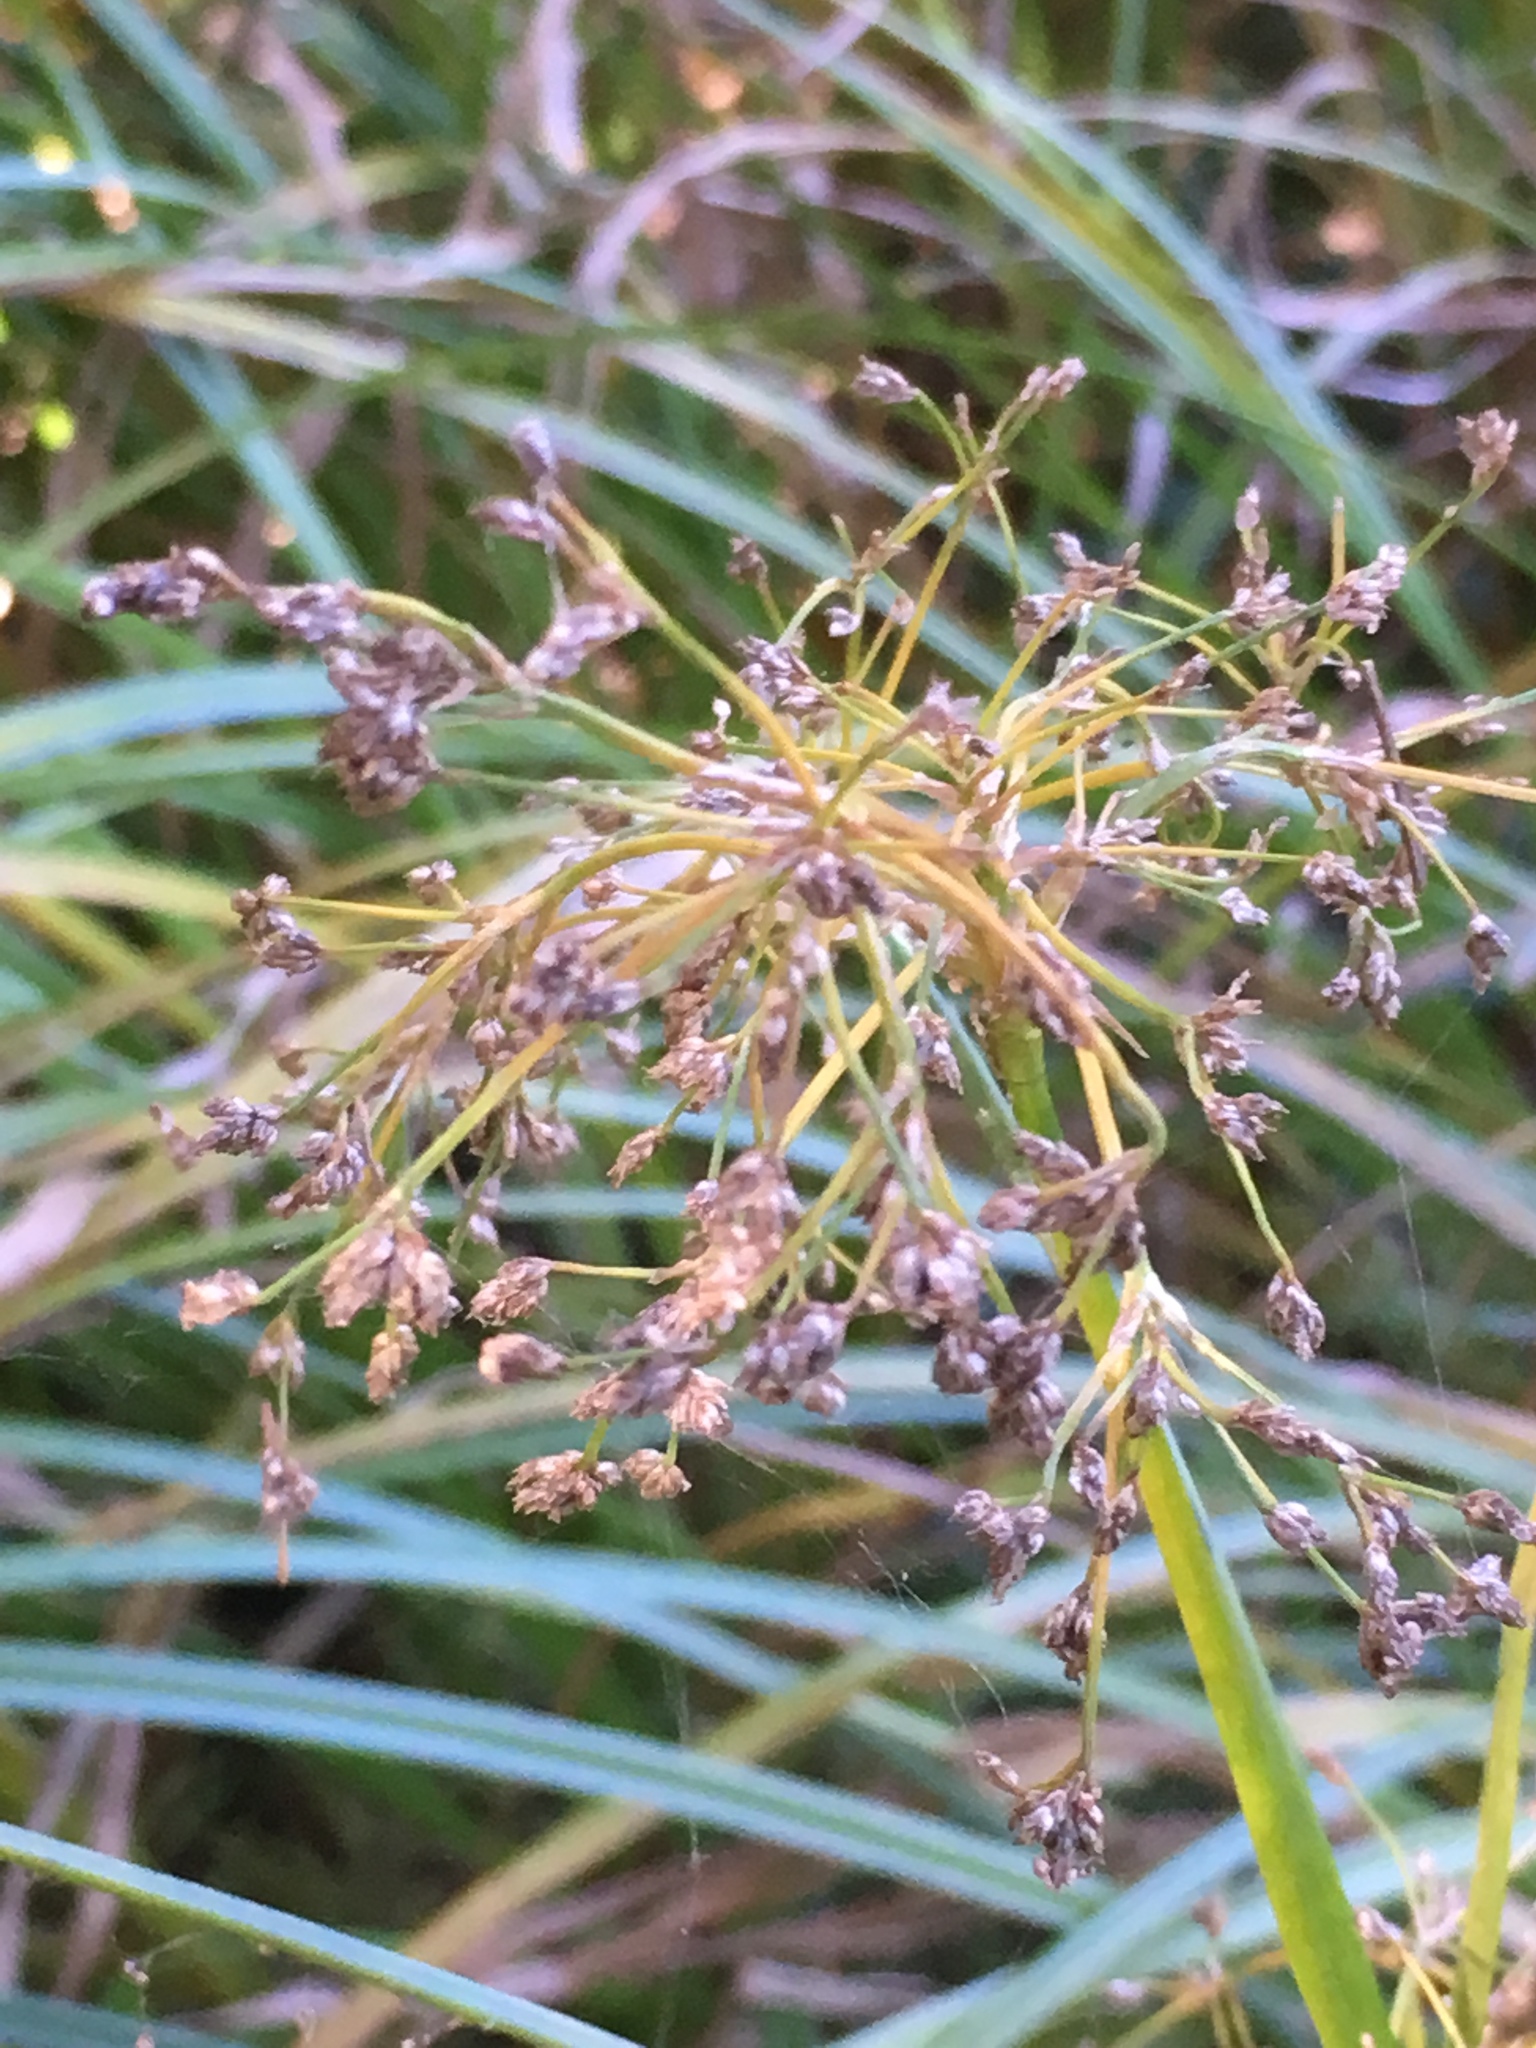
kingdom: Plantae
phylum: Tracheophyta
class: Liliopsida
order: Poales
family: Cyperaceae
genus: Scirpus
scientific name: Scirpus sylvaticus
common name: Wood club-rush
